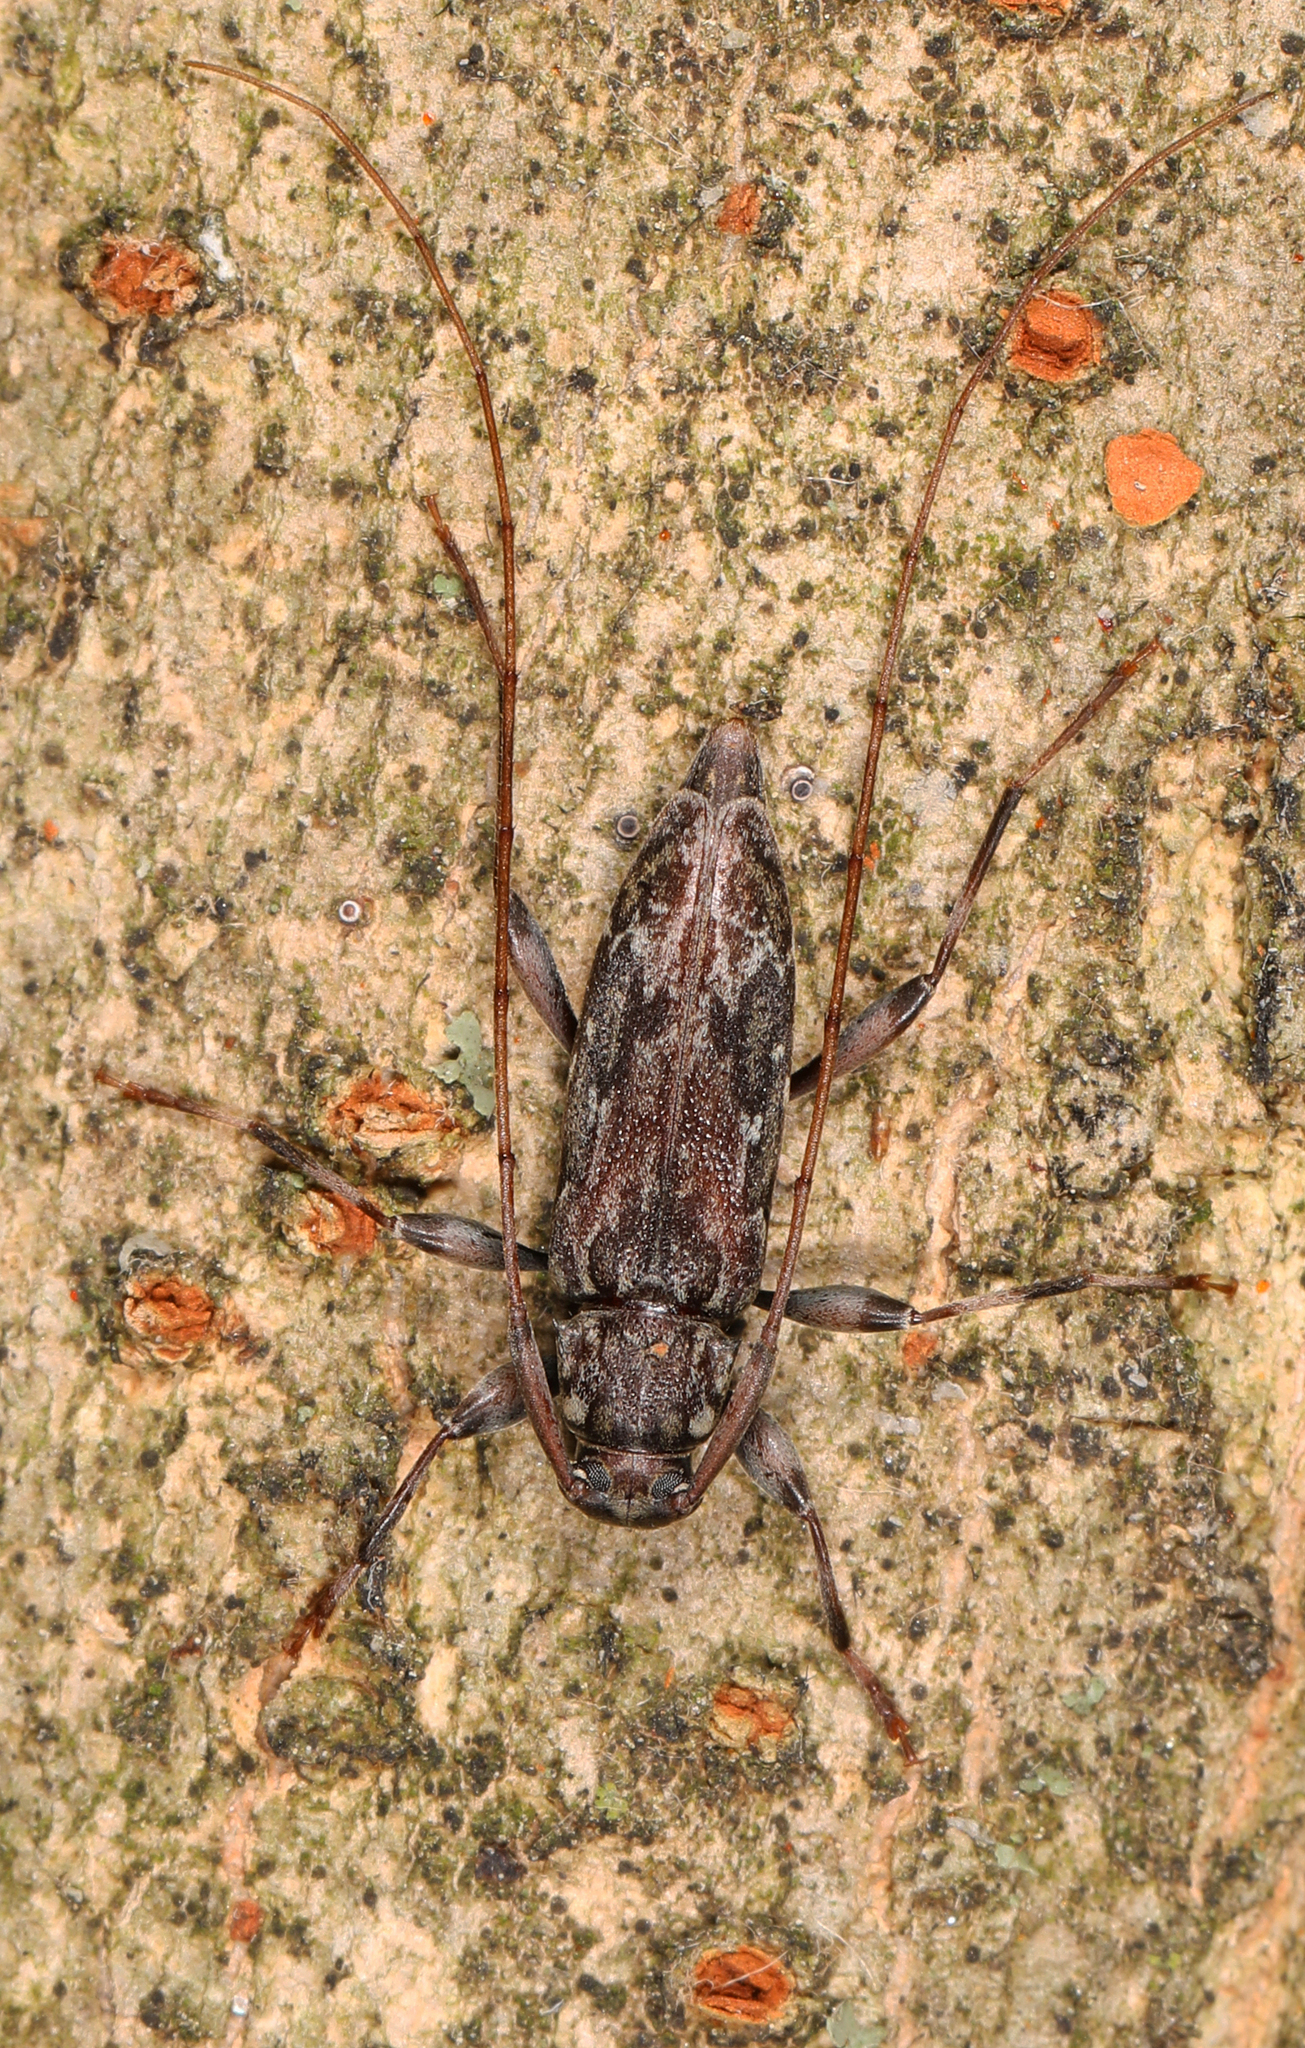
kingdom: Animalia
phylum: Arthropoda
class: Insecta
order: Coleoptera
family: Cerambycidae
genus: Lepturges
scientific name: Lepturges confluens
